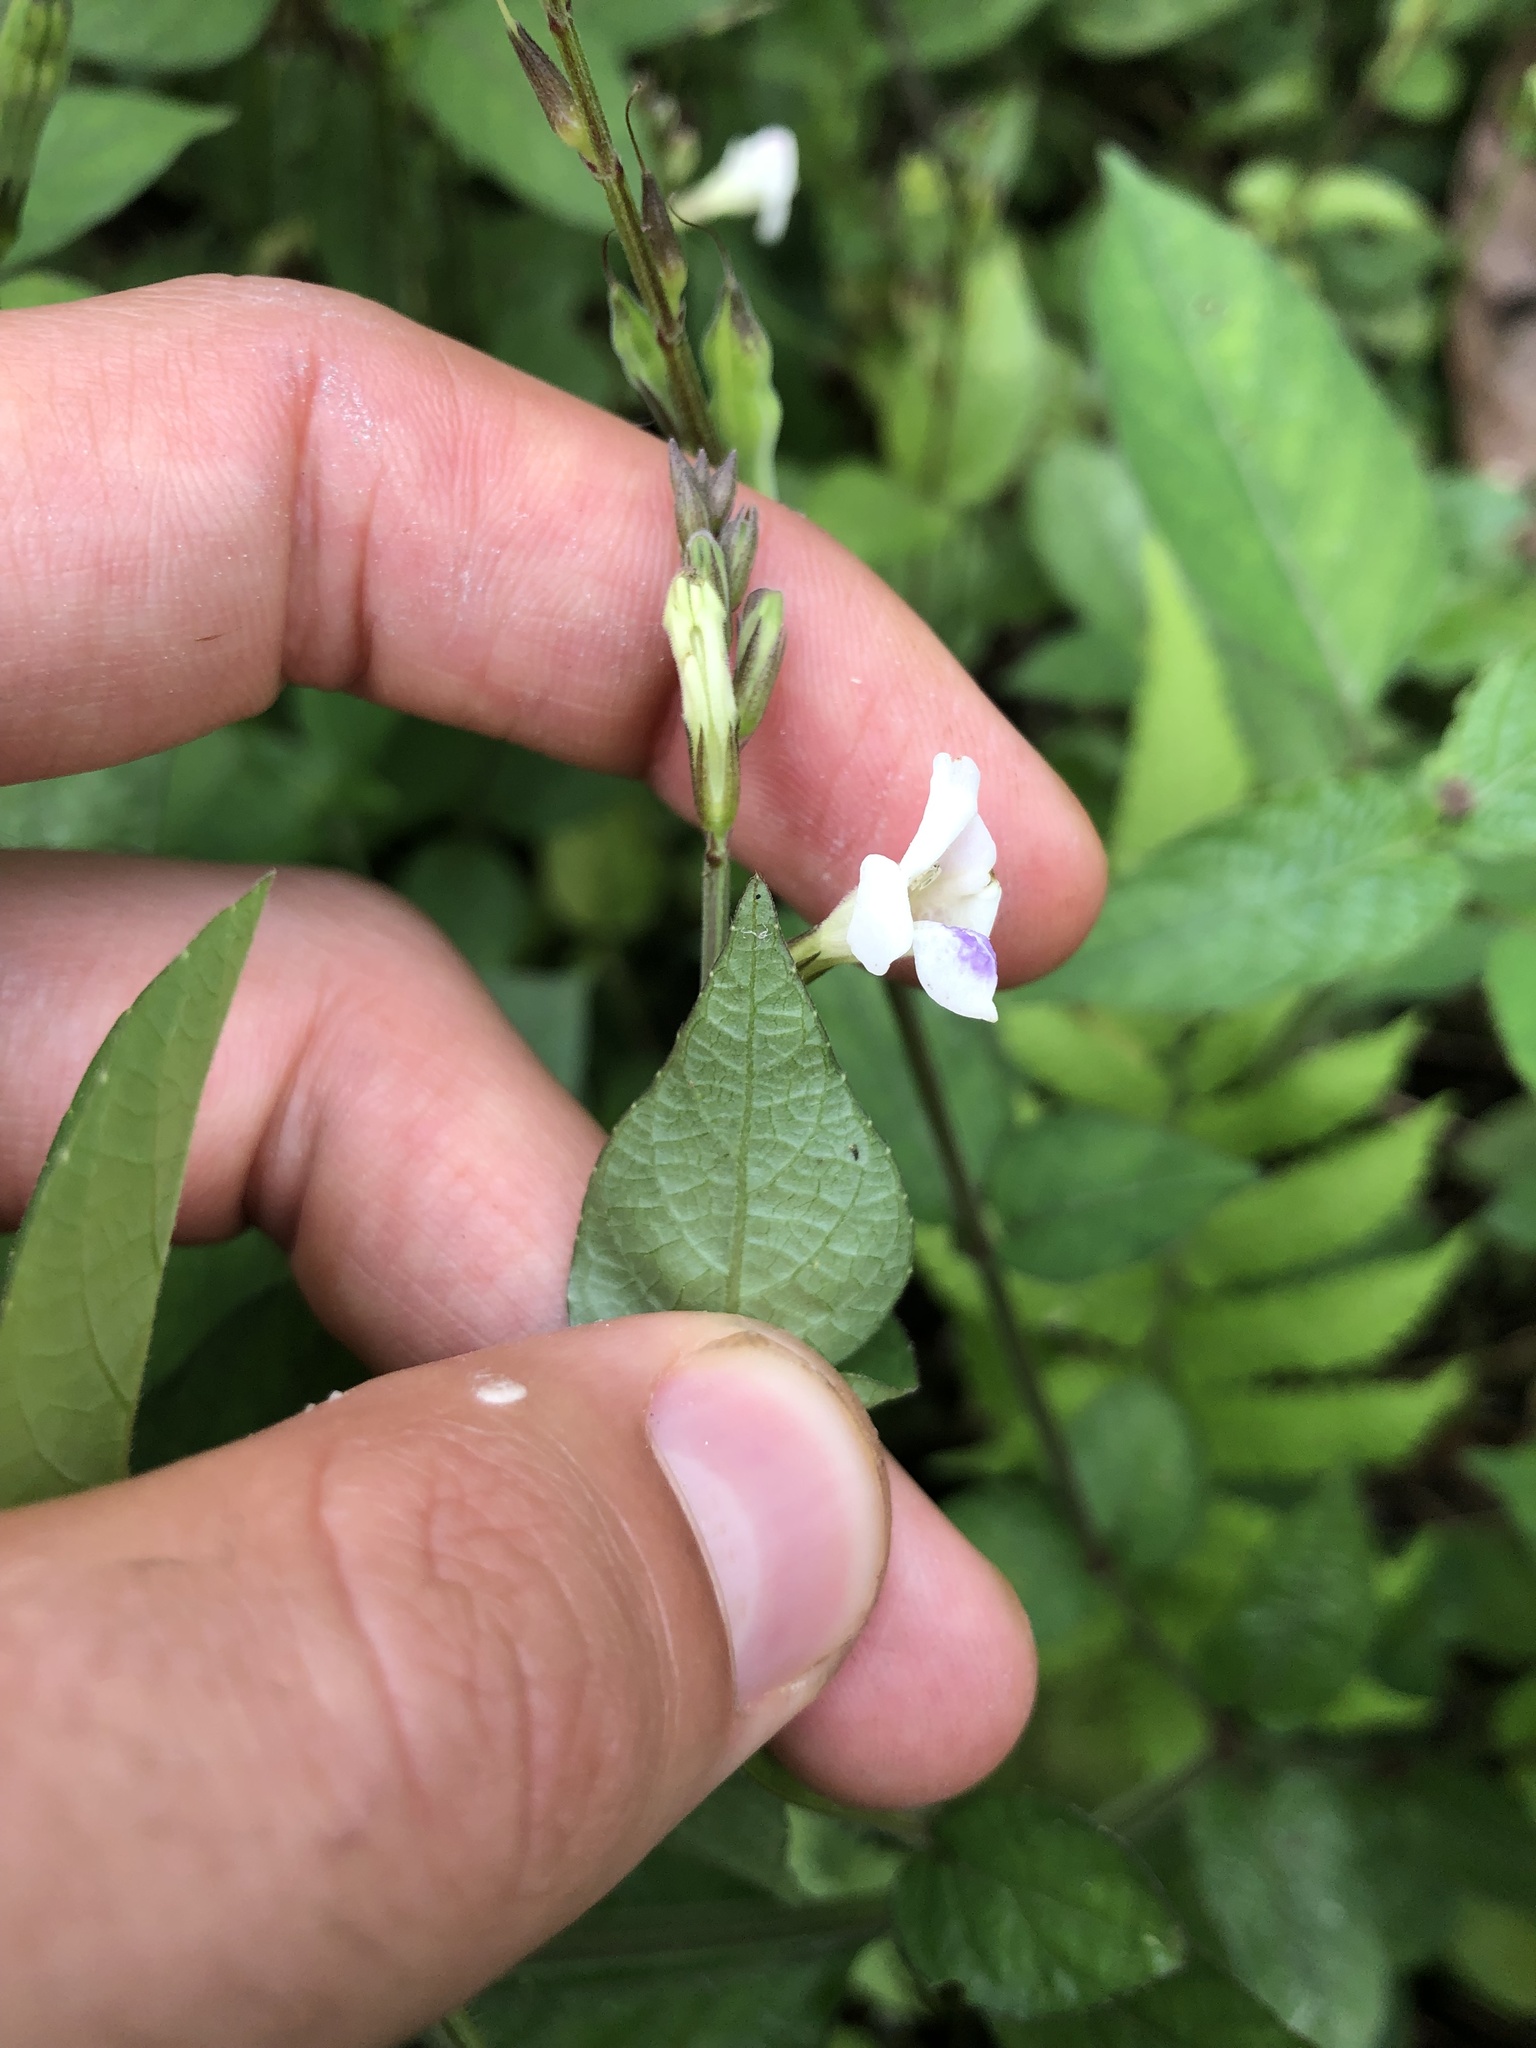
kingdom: Plantae
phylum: Tracheophyta
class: Magnoliopsida
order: Lamiales
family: Acanthaceae
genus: Asystasia
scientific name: Asystasia intrusa
